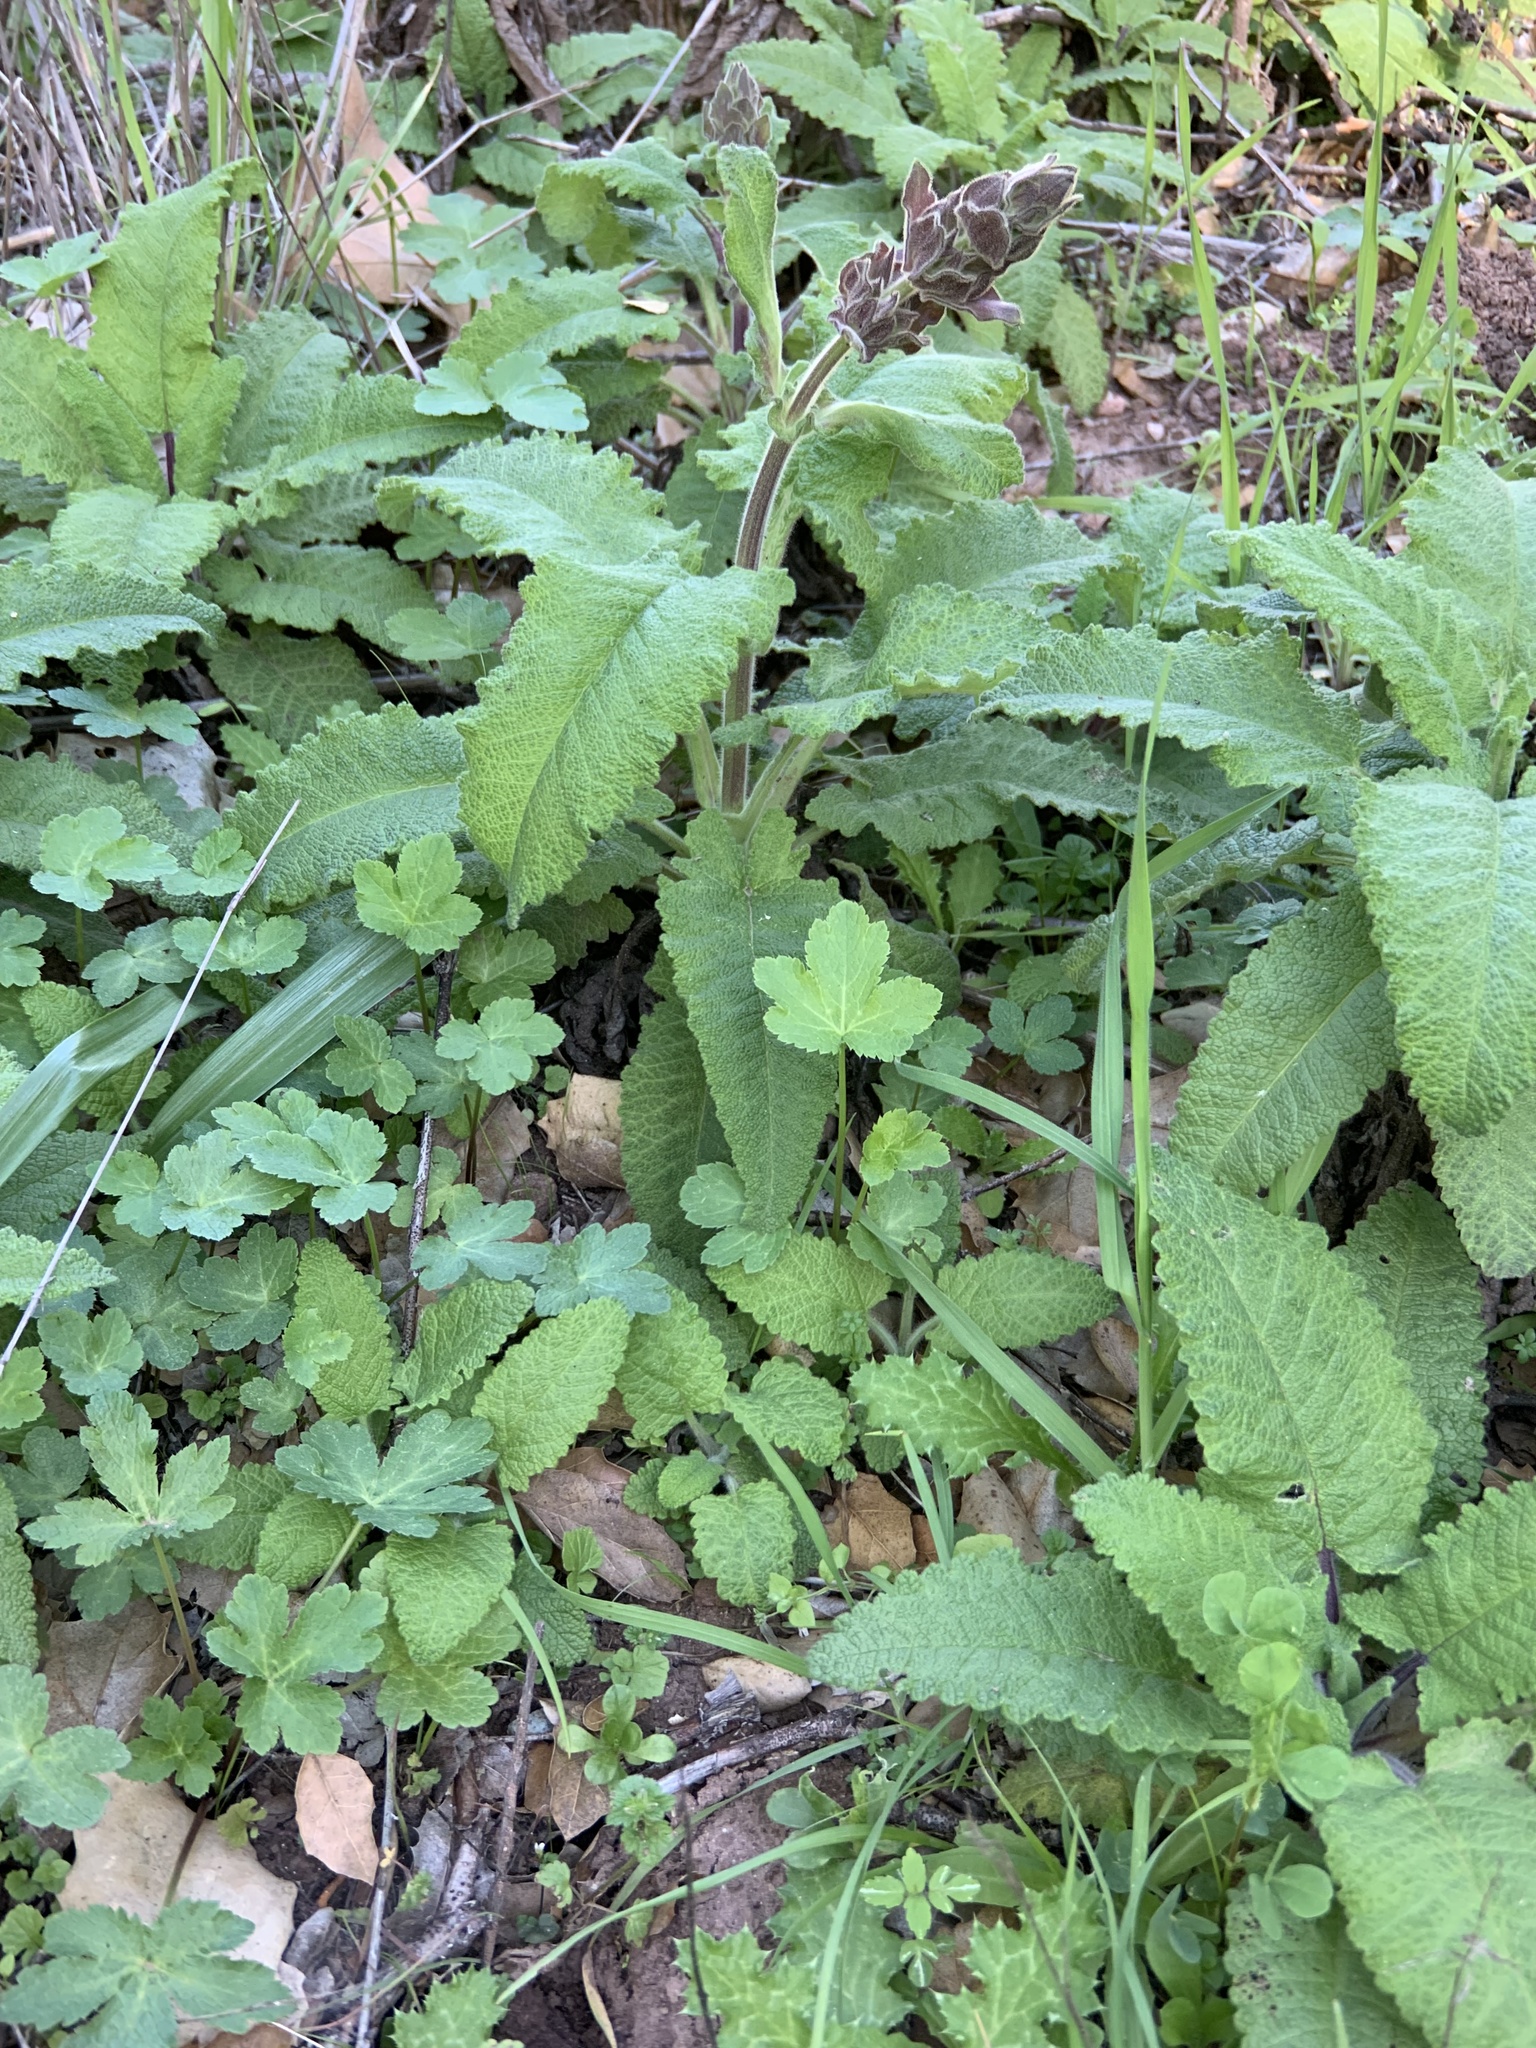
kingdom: Plantae
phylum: Tracheophyta
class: Magnoliopsida
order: Lamiales
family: Lamiaceae
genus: Salvia
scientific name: Salvia spathacea
